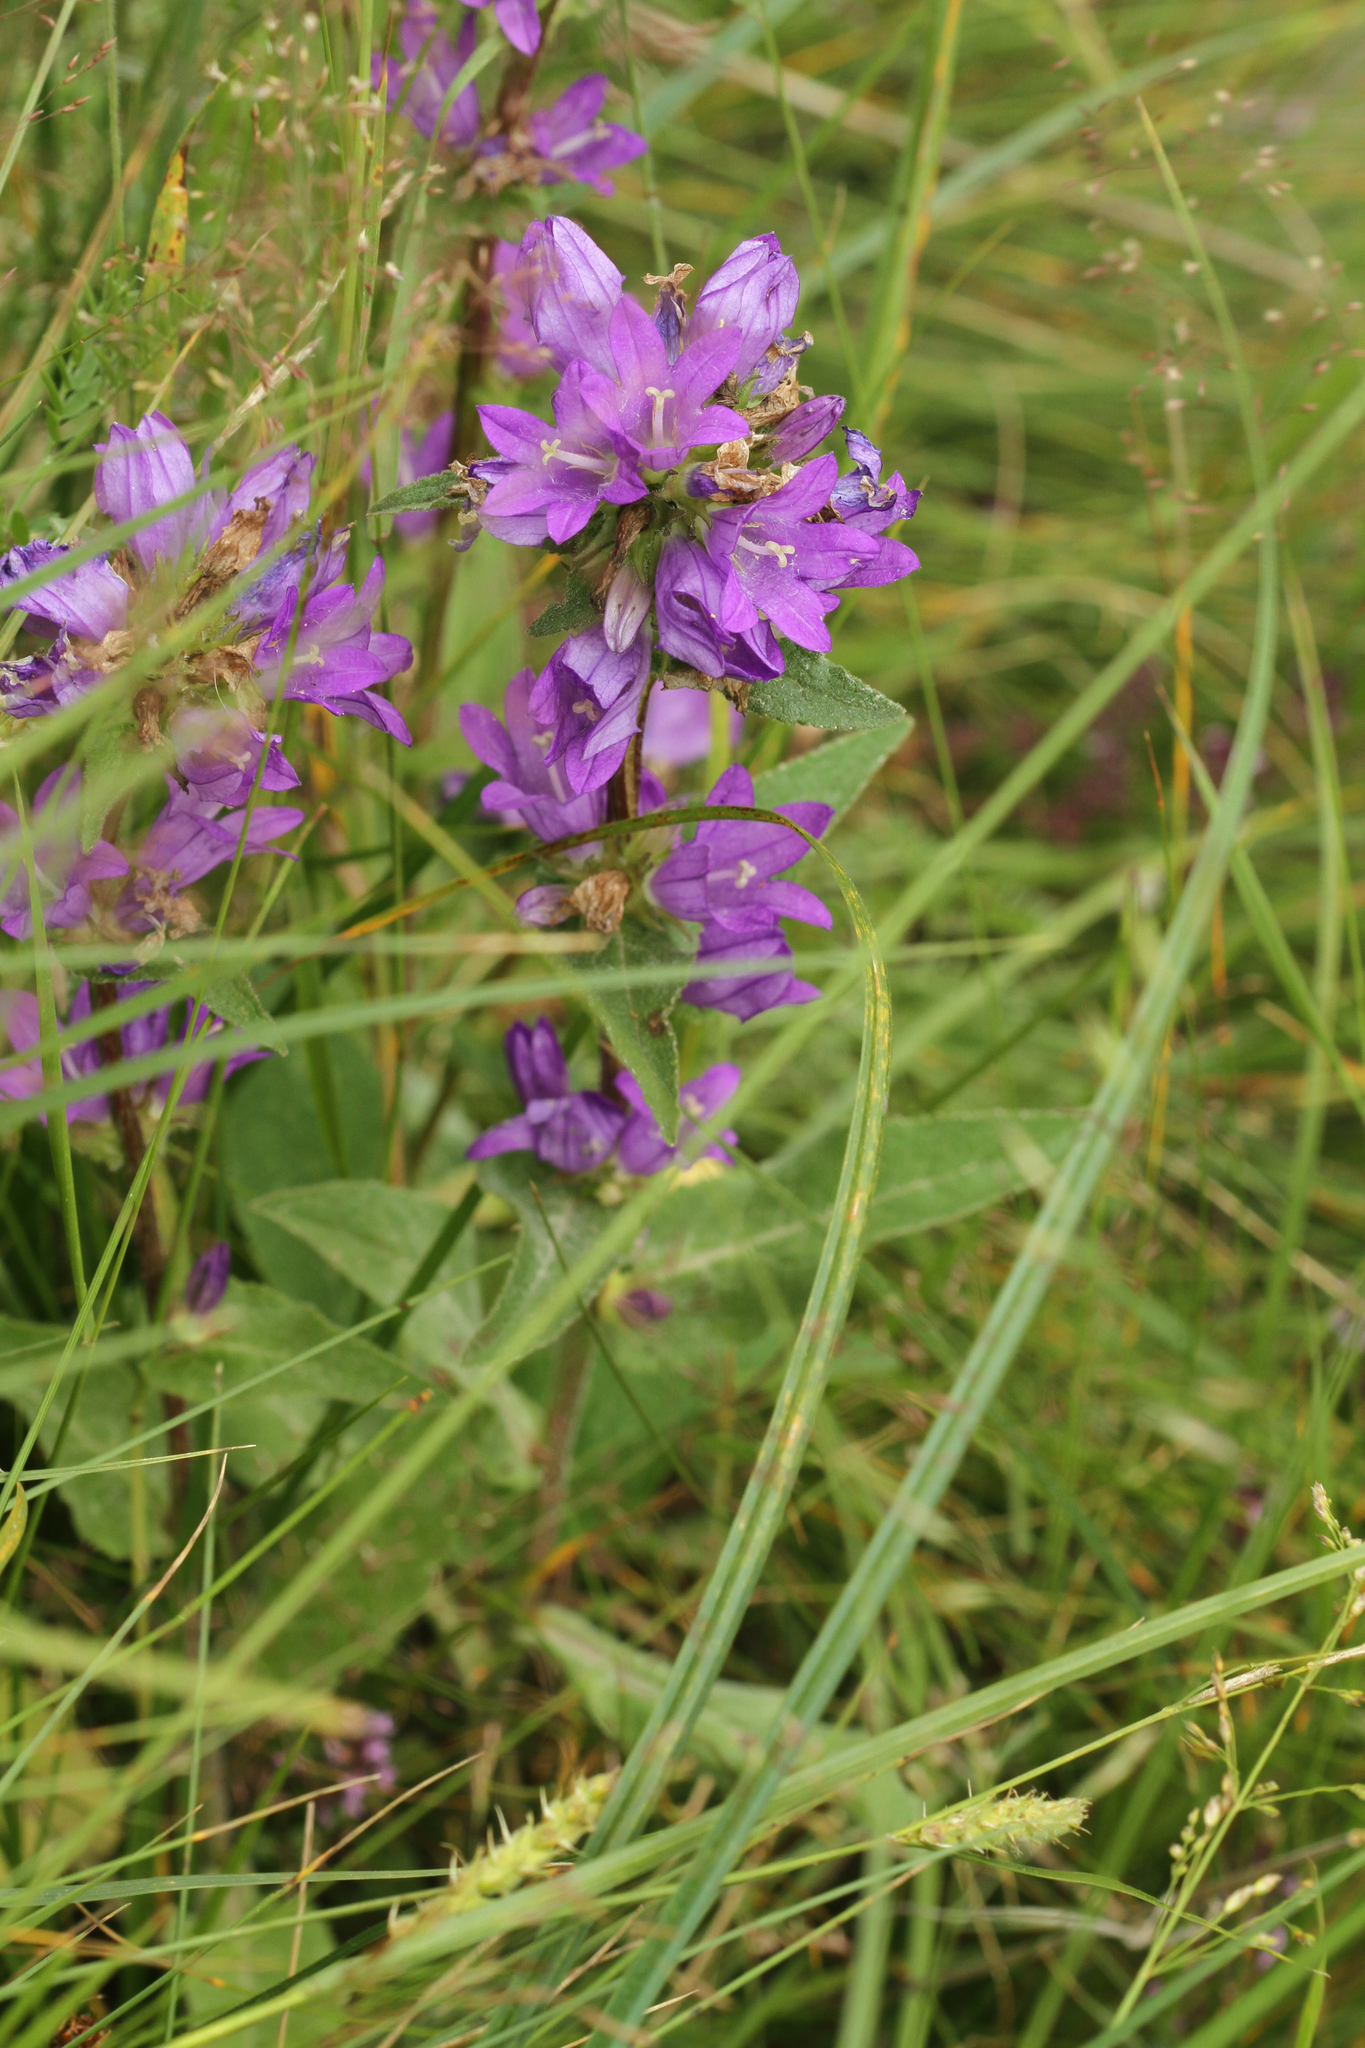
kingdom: Plantae
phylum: Tracheophyta
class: Magnoliopsida
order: Asterales
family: Campanulaceae
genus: Campanula
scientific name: Campanula glomerata
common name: Clustered bellflower
